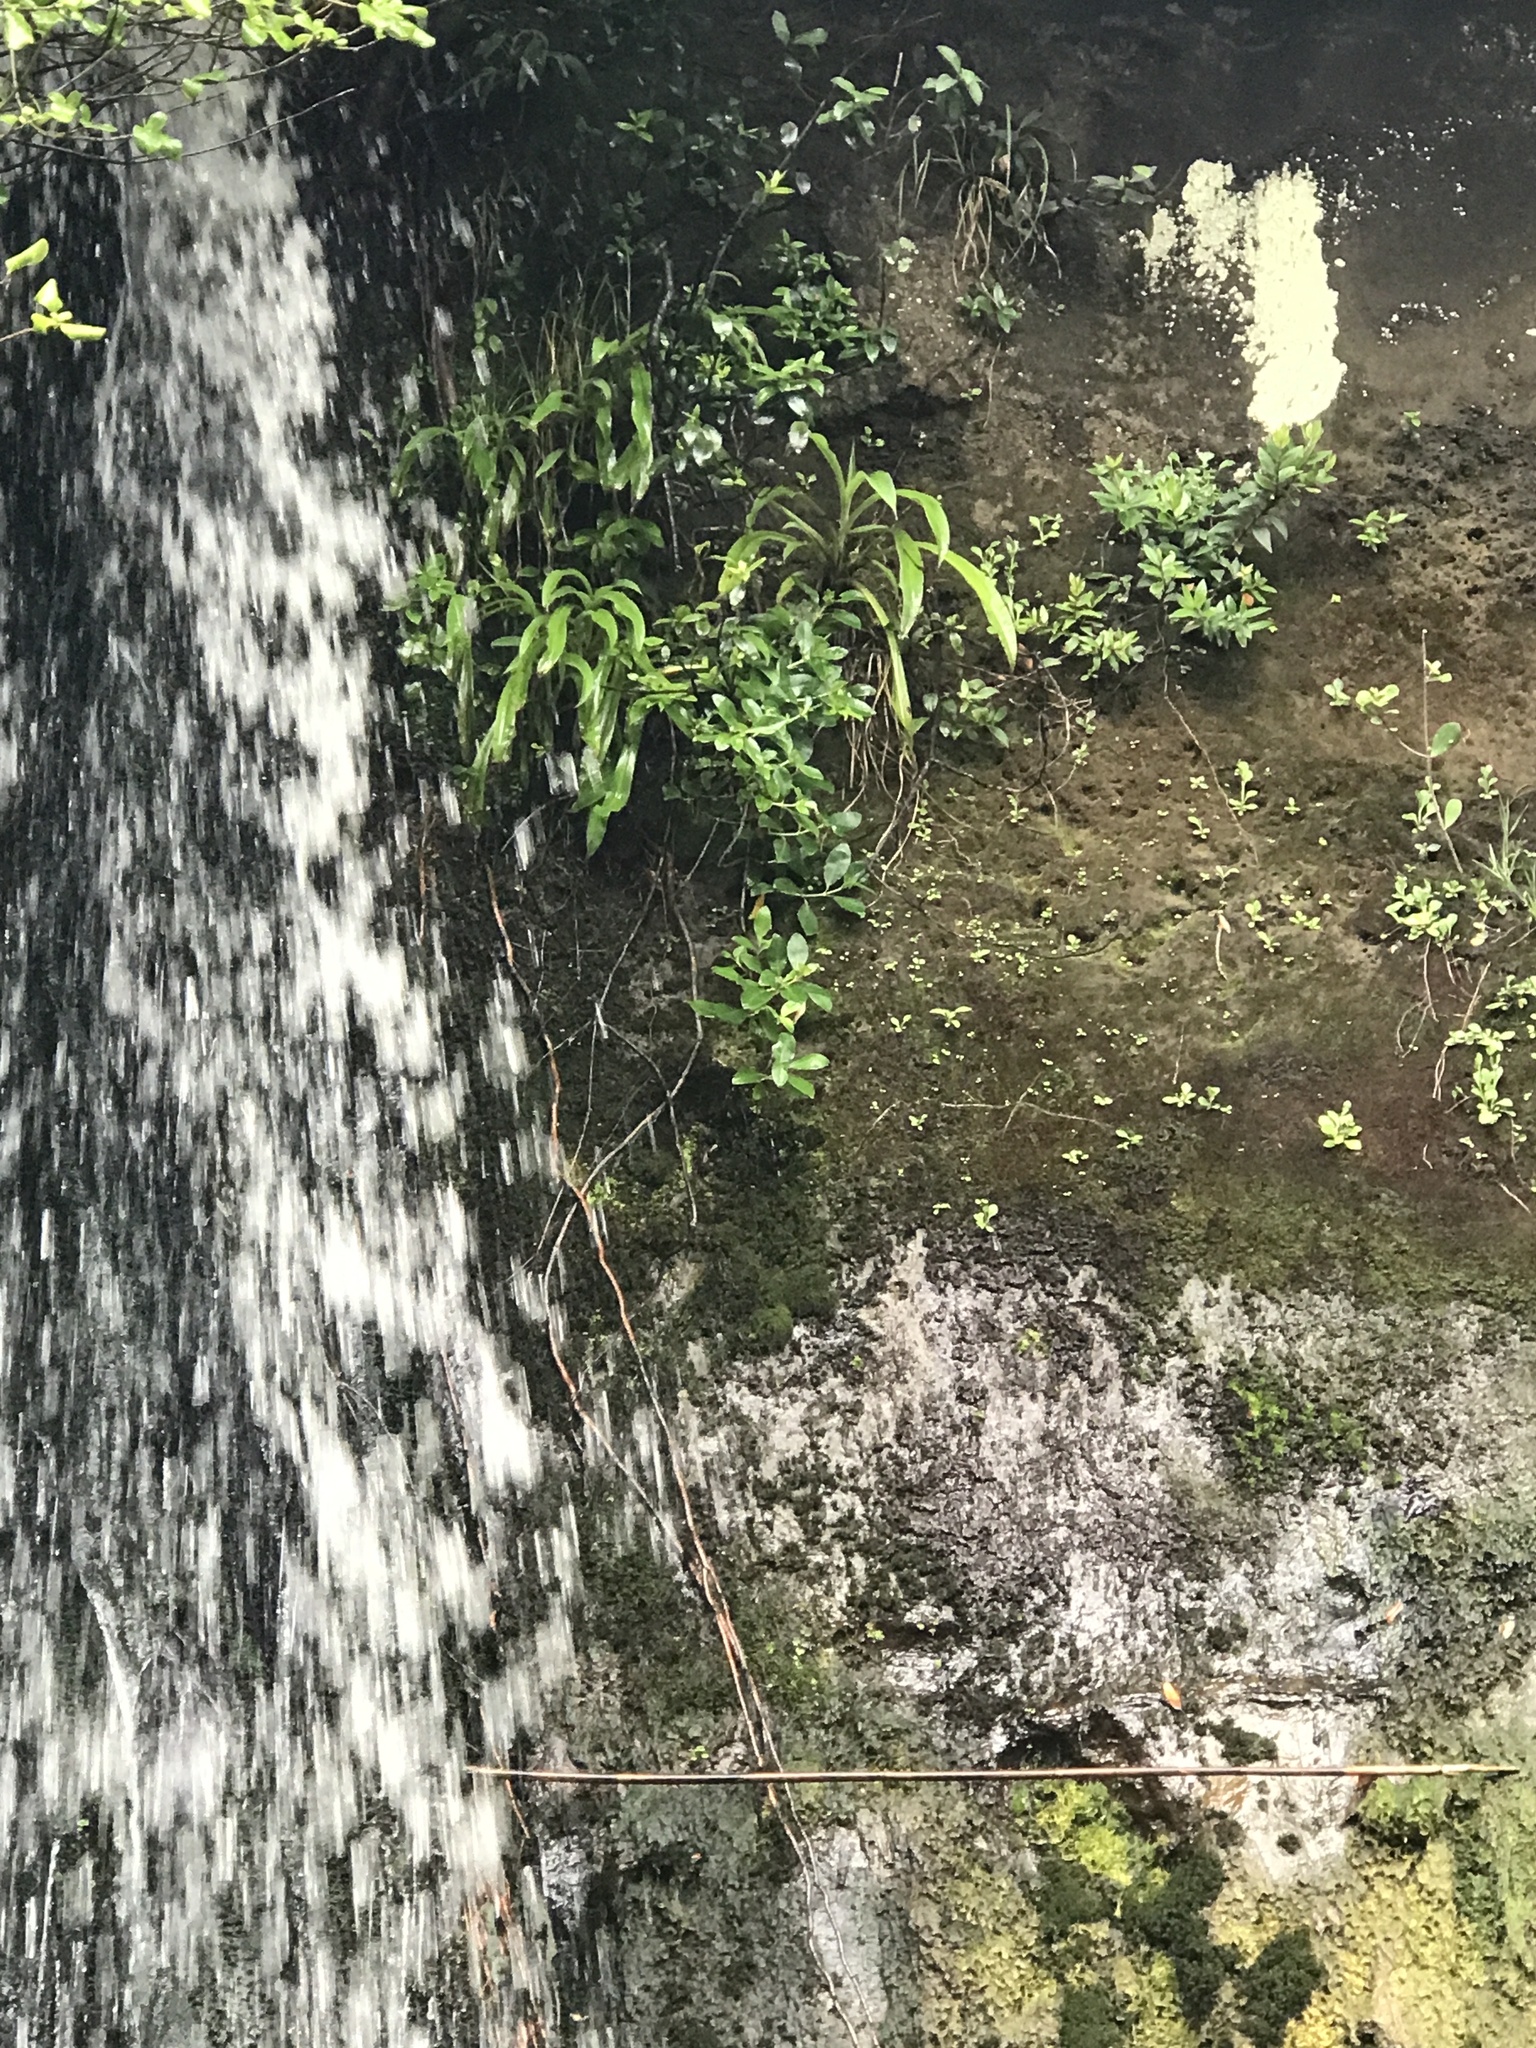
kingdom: Plantae
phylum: Tracheophyta
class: Liliopsida
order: Asparagales
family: Asparagaceae
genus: Arthropodium
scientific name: Arthropodium cirratum
